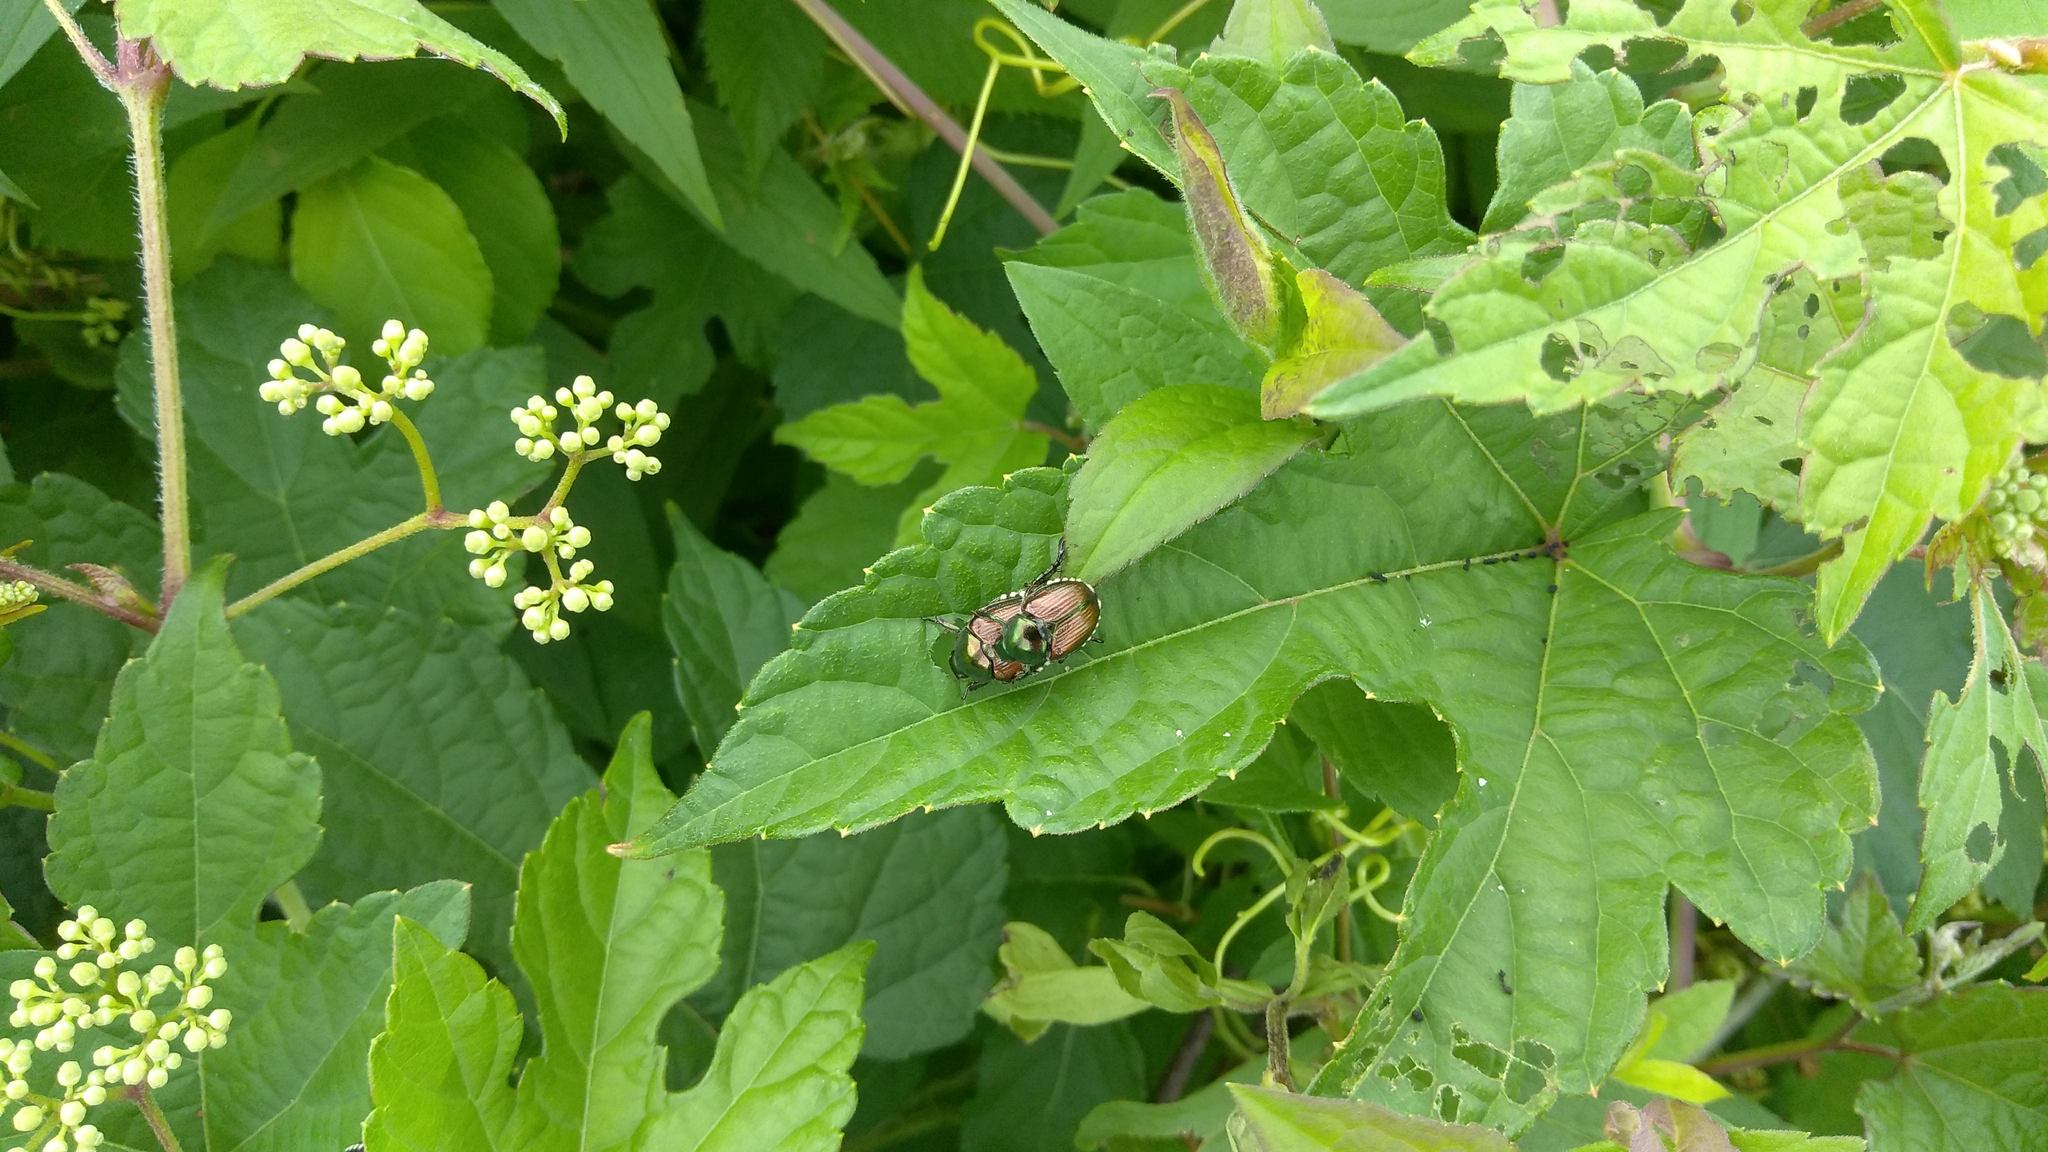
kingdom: Animalia
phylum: Arthropoda
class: Insecta
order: Coleoptera
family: Scarabaeidae
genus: Popillia
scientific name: Popillia japonica
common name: Japanese beetle
